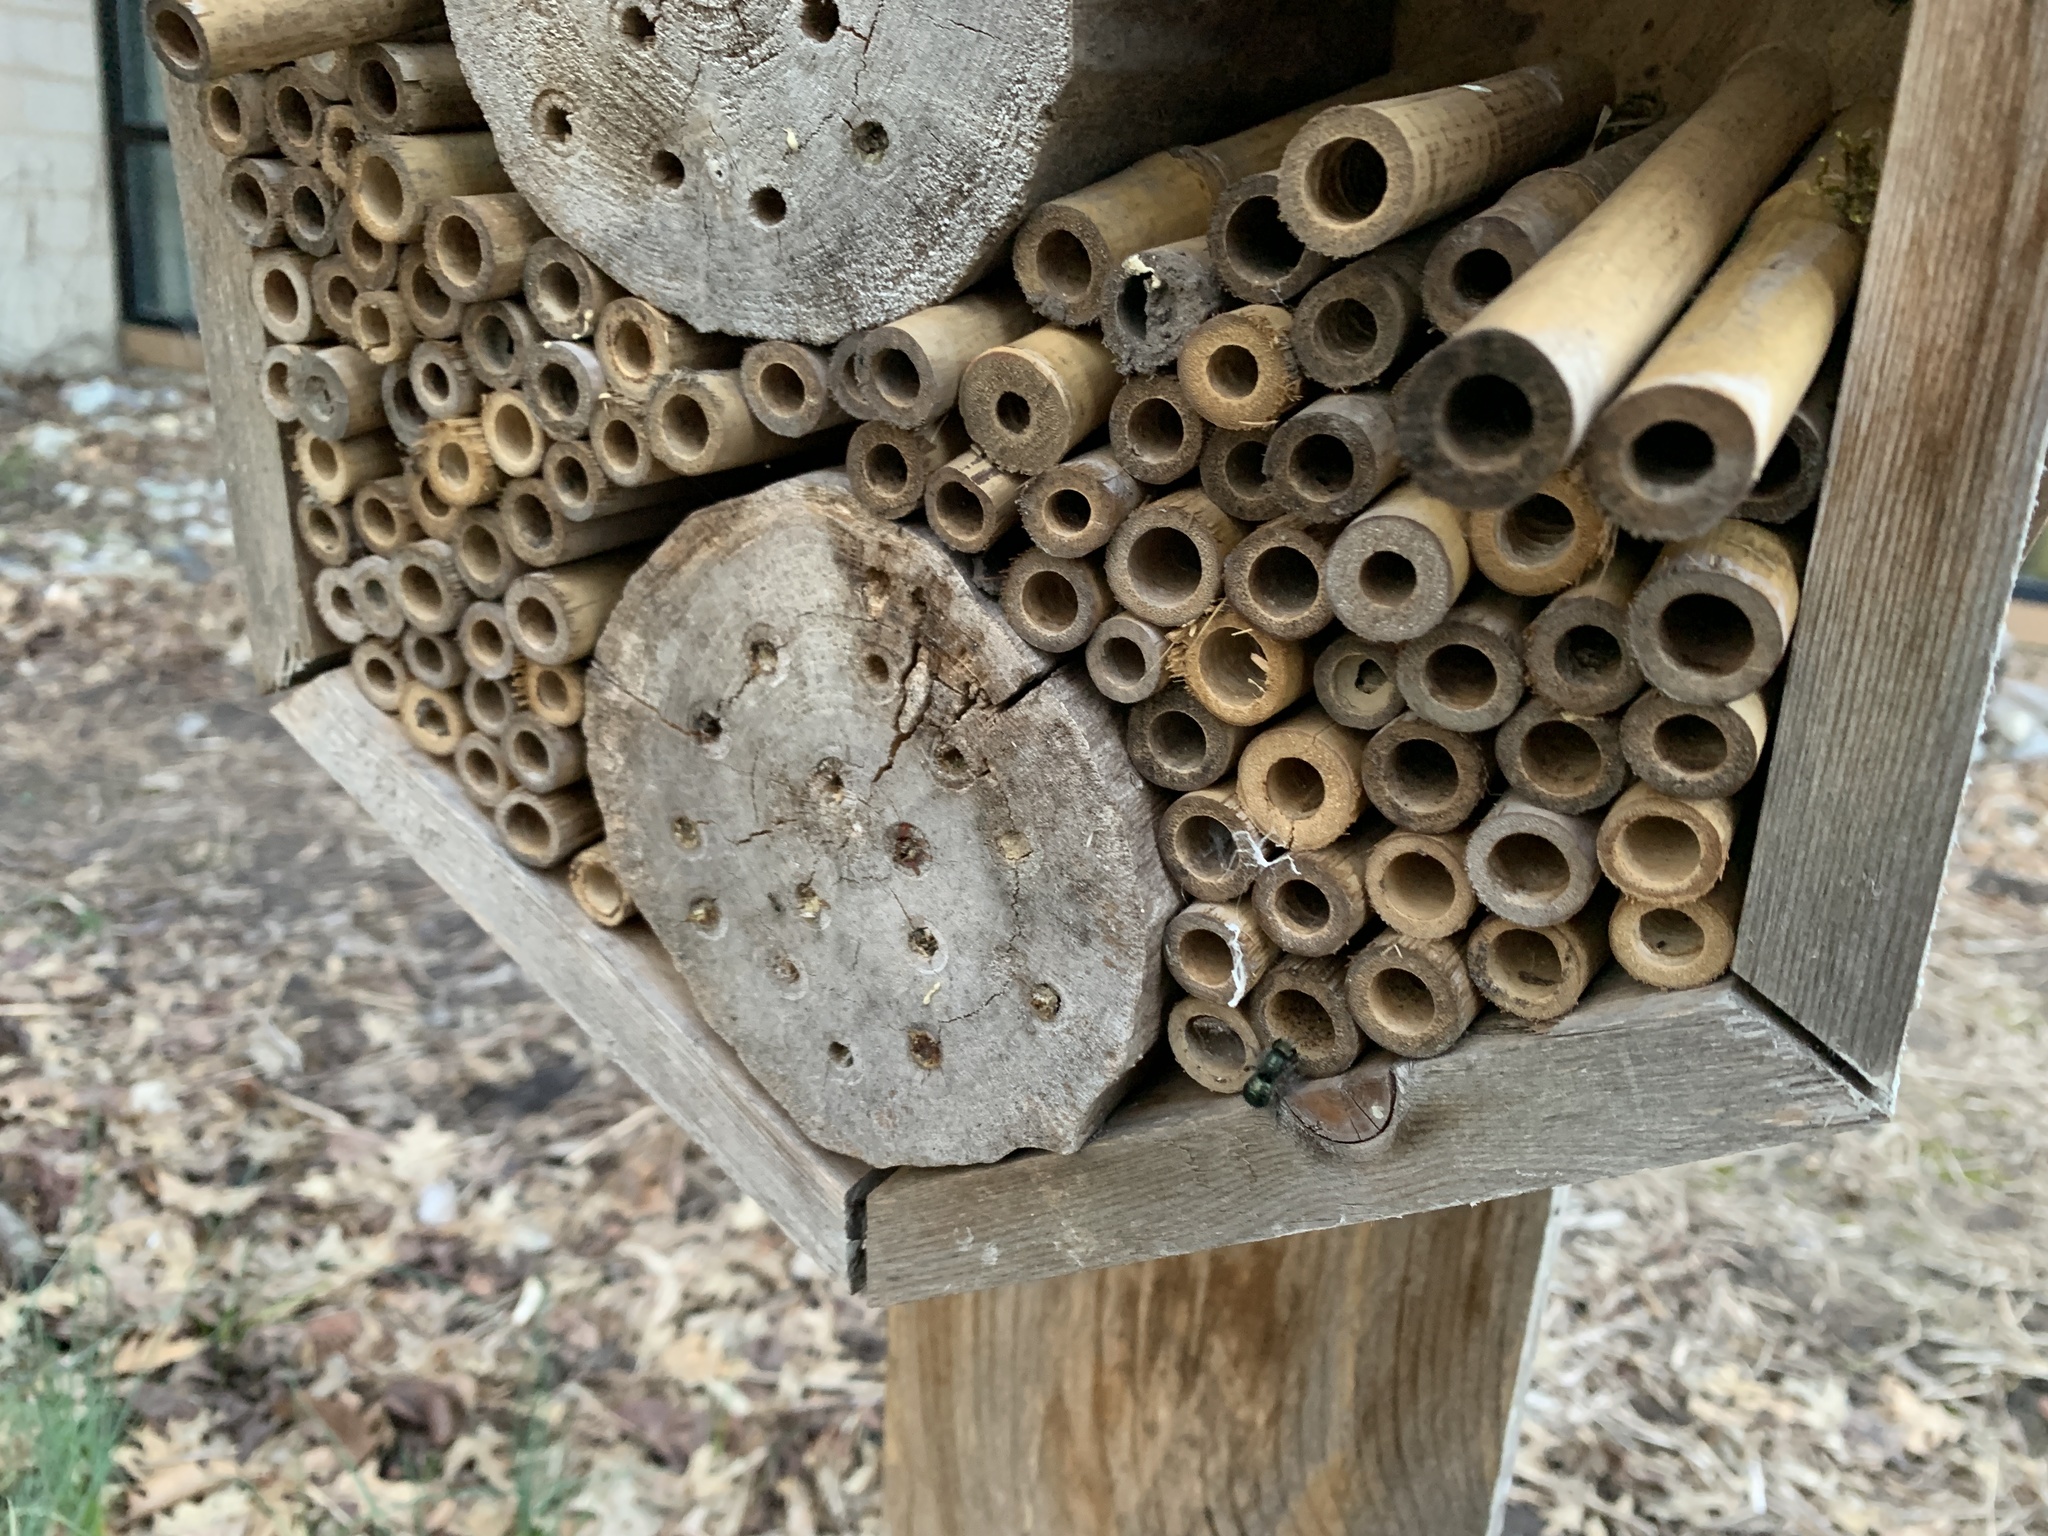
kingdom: Animalia
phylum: Arthropoda
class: Insecta
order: Hymenoptera
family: Megachilidae
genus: Osmia
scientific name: Osmia lignaria
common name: Blue orchard bee
